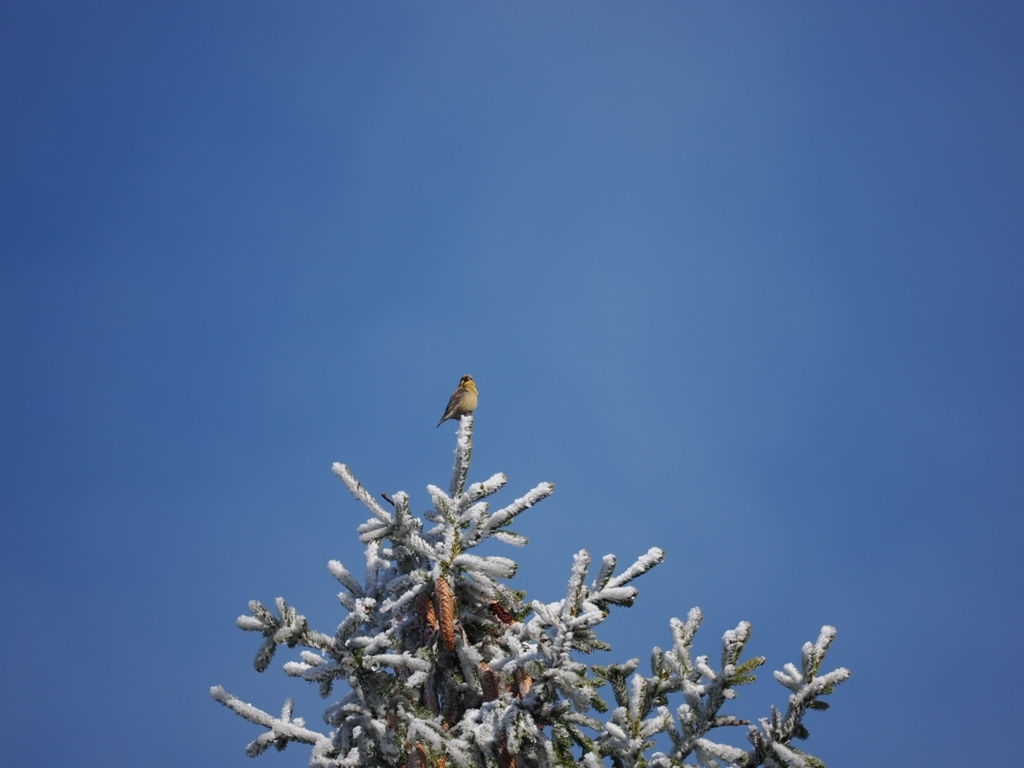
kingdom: Animalia
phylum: Chordata
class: Aves
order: Passeriformes
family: Fringillidae
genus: Loxia
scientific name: Loxia curvirostra
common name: Red crossbill
